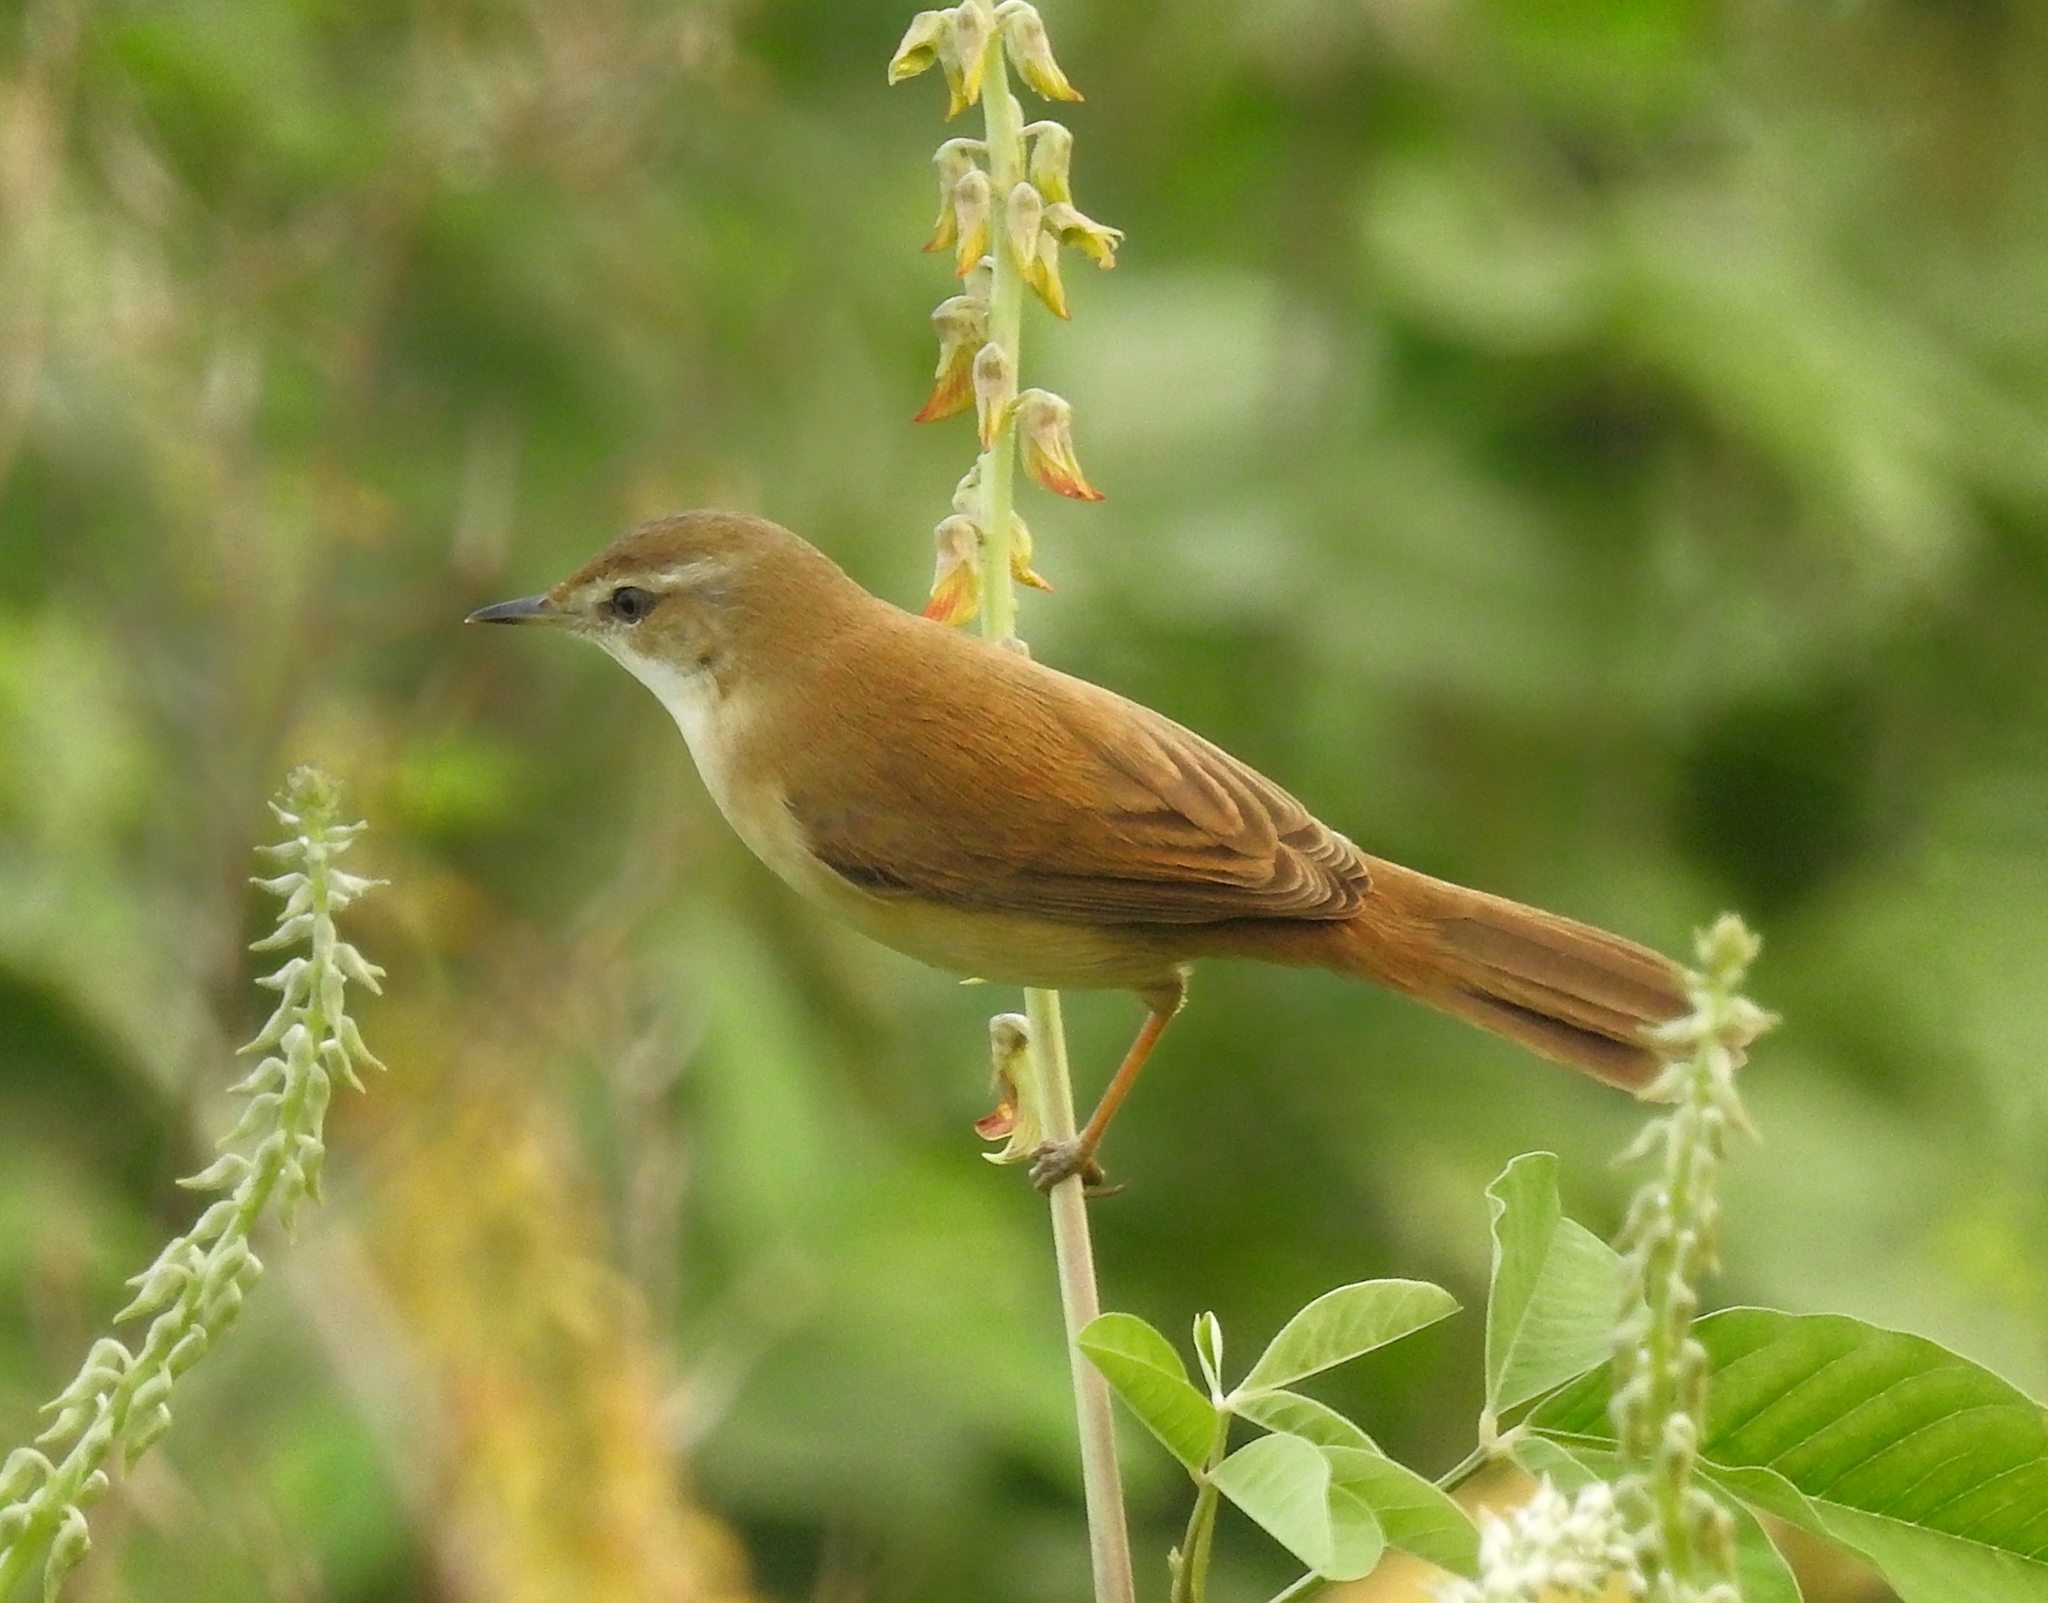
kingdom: Animalia
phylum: Chordata
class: Aves
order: Passeriformes
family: Acrocephalidae
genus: Acrocephalus
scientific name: Acrocephalus agricola
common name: Paddyfield warbler
